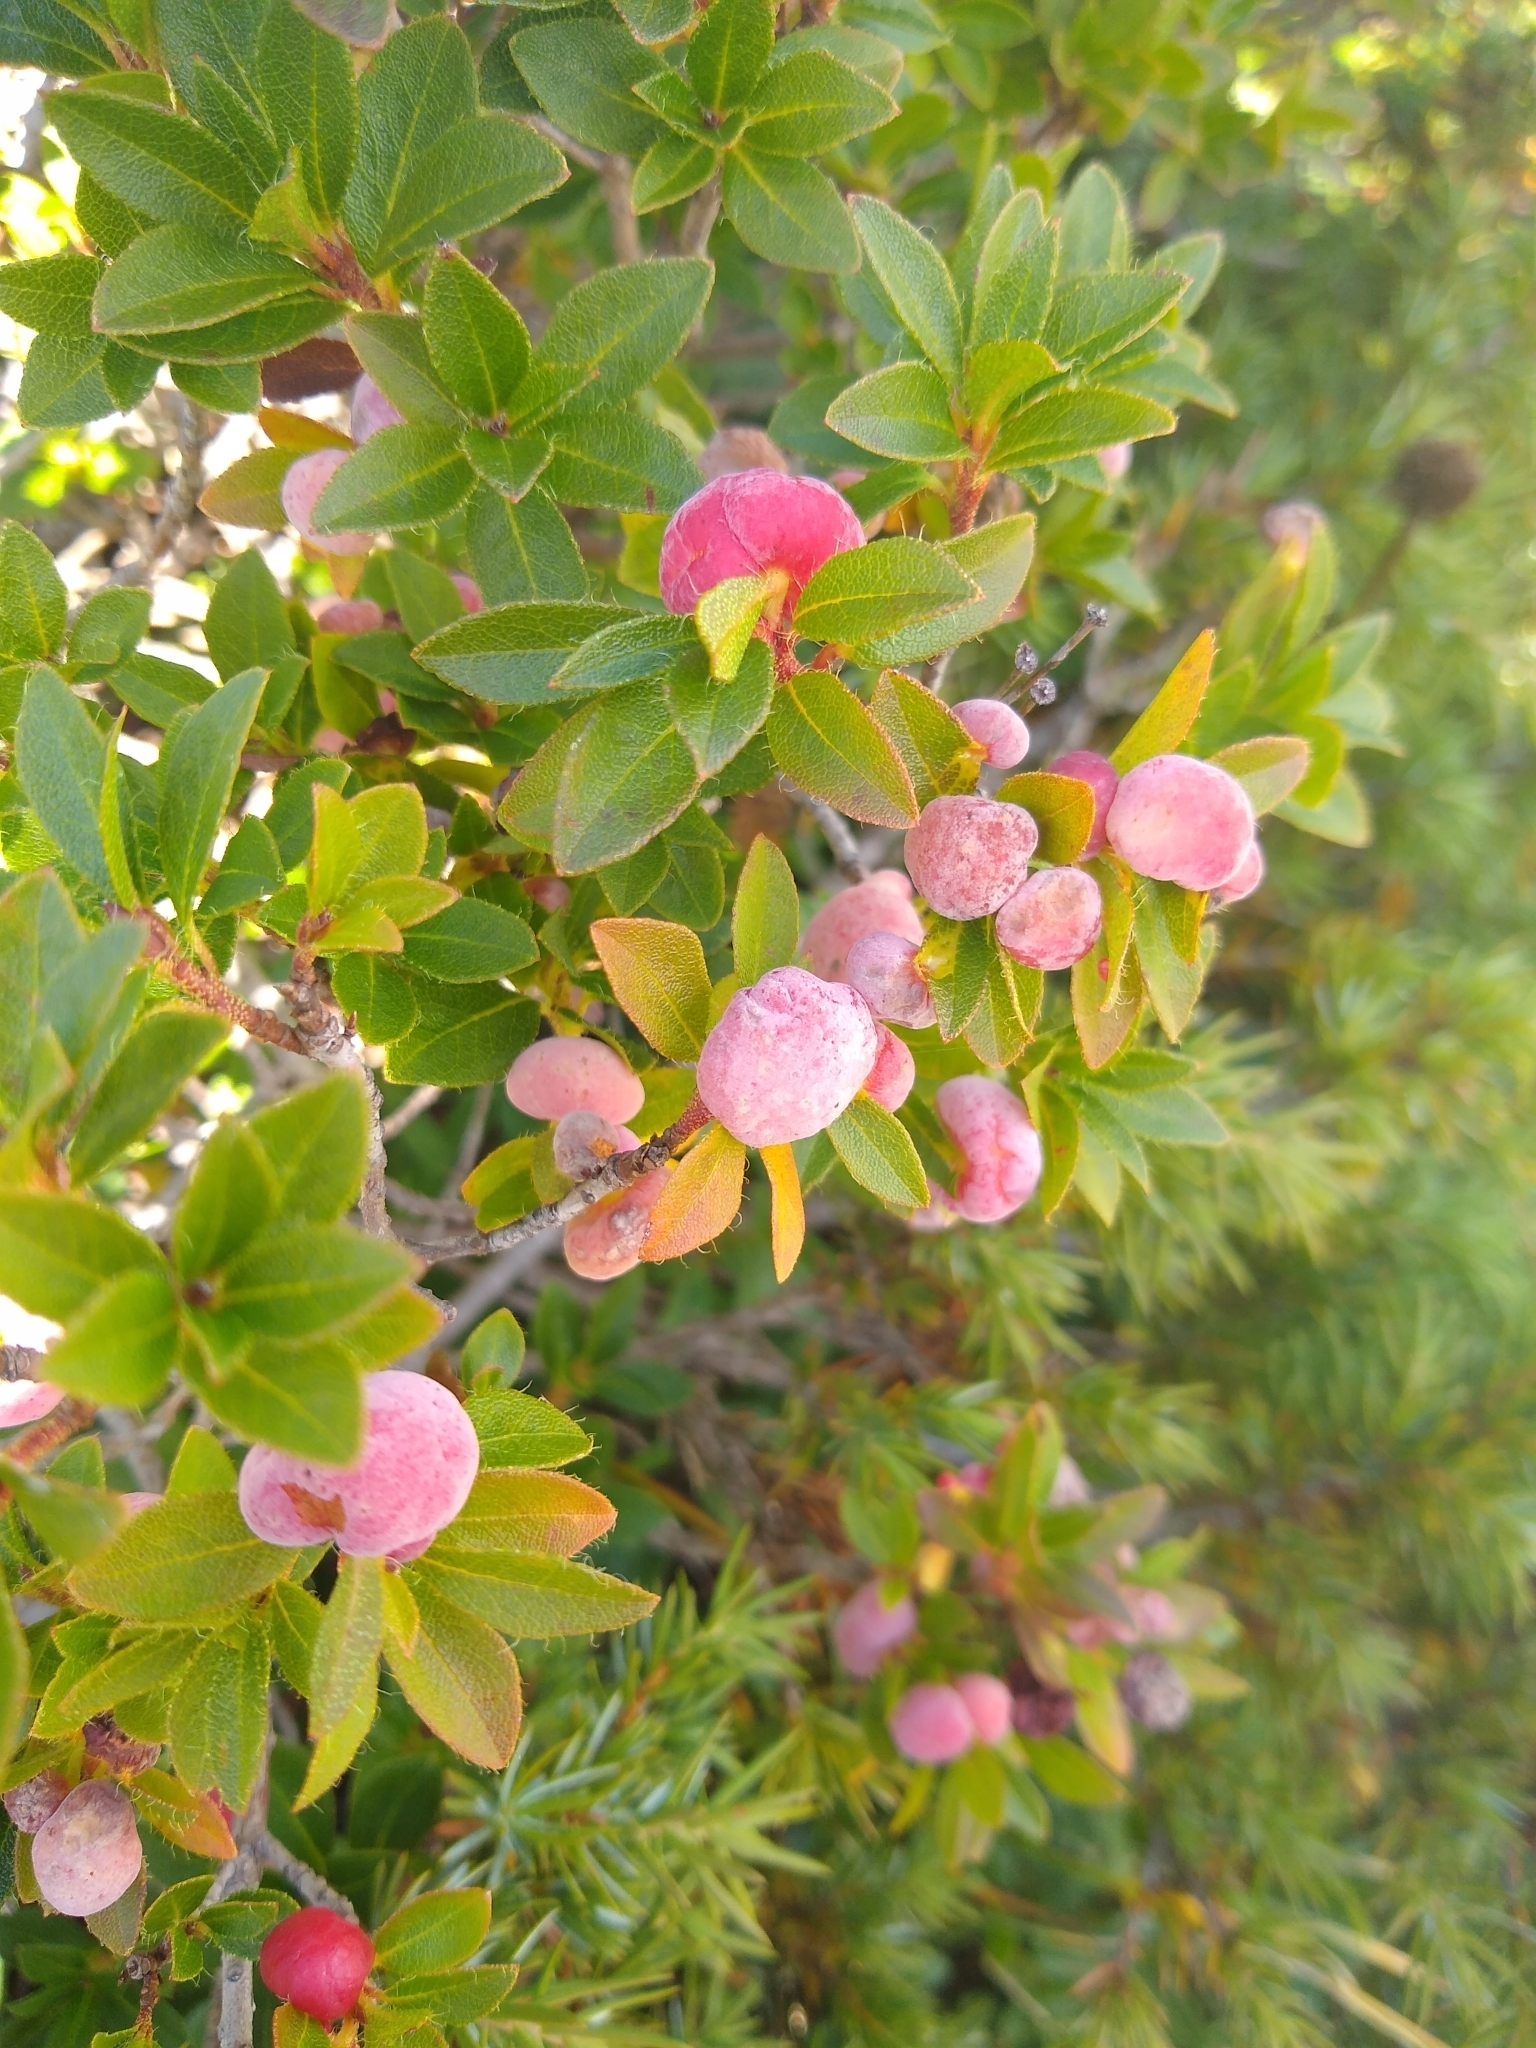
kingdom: Fungi
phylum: Basidiomycota
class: Exobasidiomycetes
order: Exobasidiales
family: Exobasidiaceae
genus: Exobasidium
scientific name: Exobasidium rhododendri
